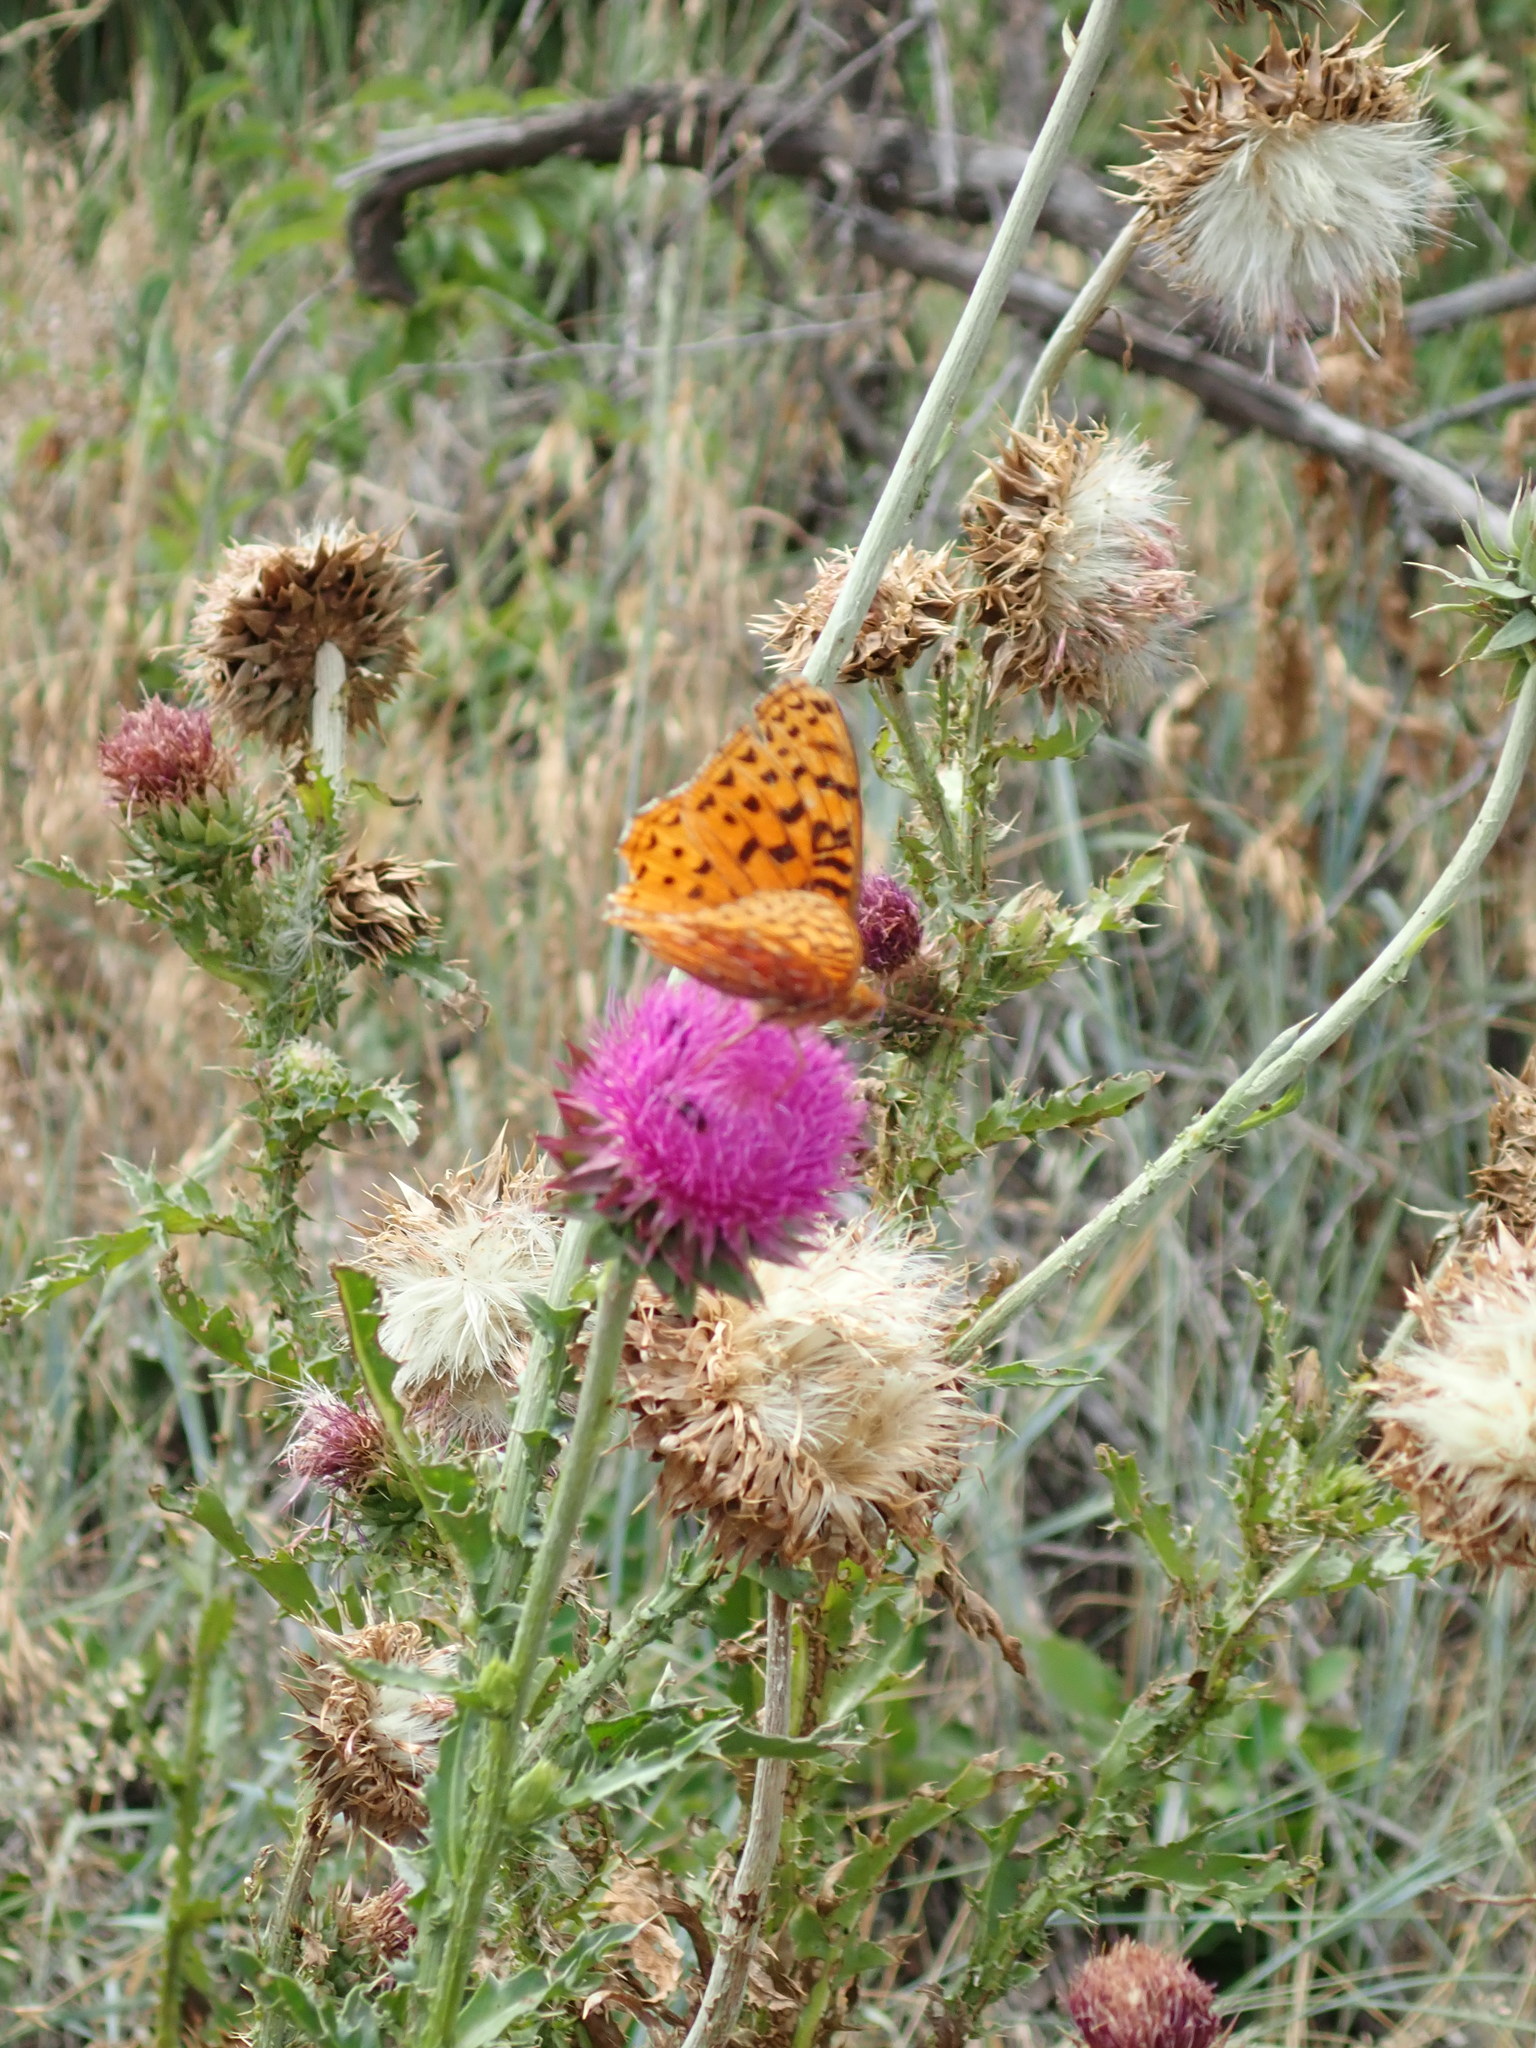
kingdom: Animalia
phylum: Arthropoda
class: Insecta
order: Lepidoptera
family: Nymphalidae
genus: Speyeria
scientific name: Speyeria aphrodite
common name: Aphrodite friitllary
